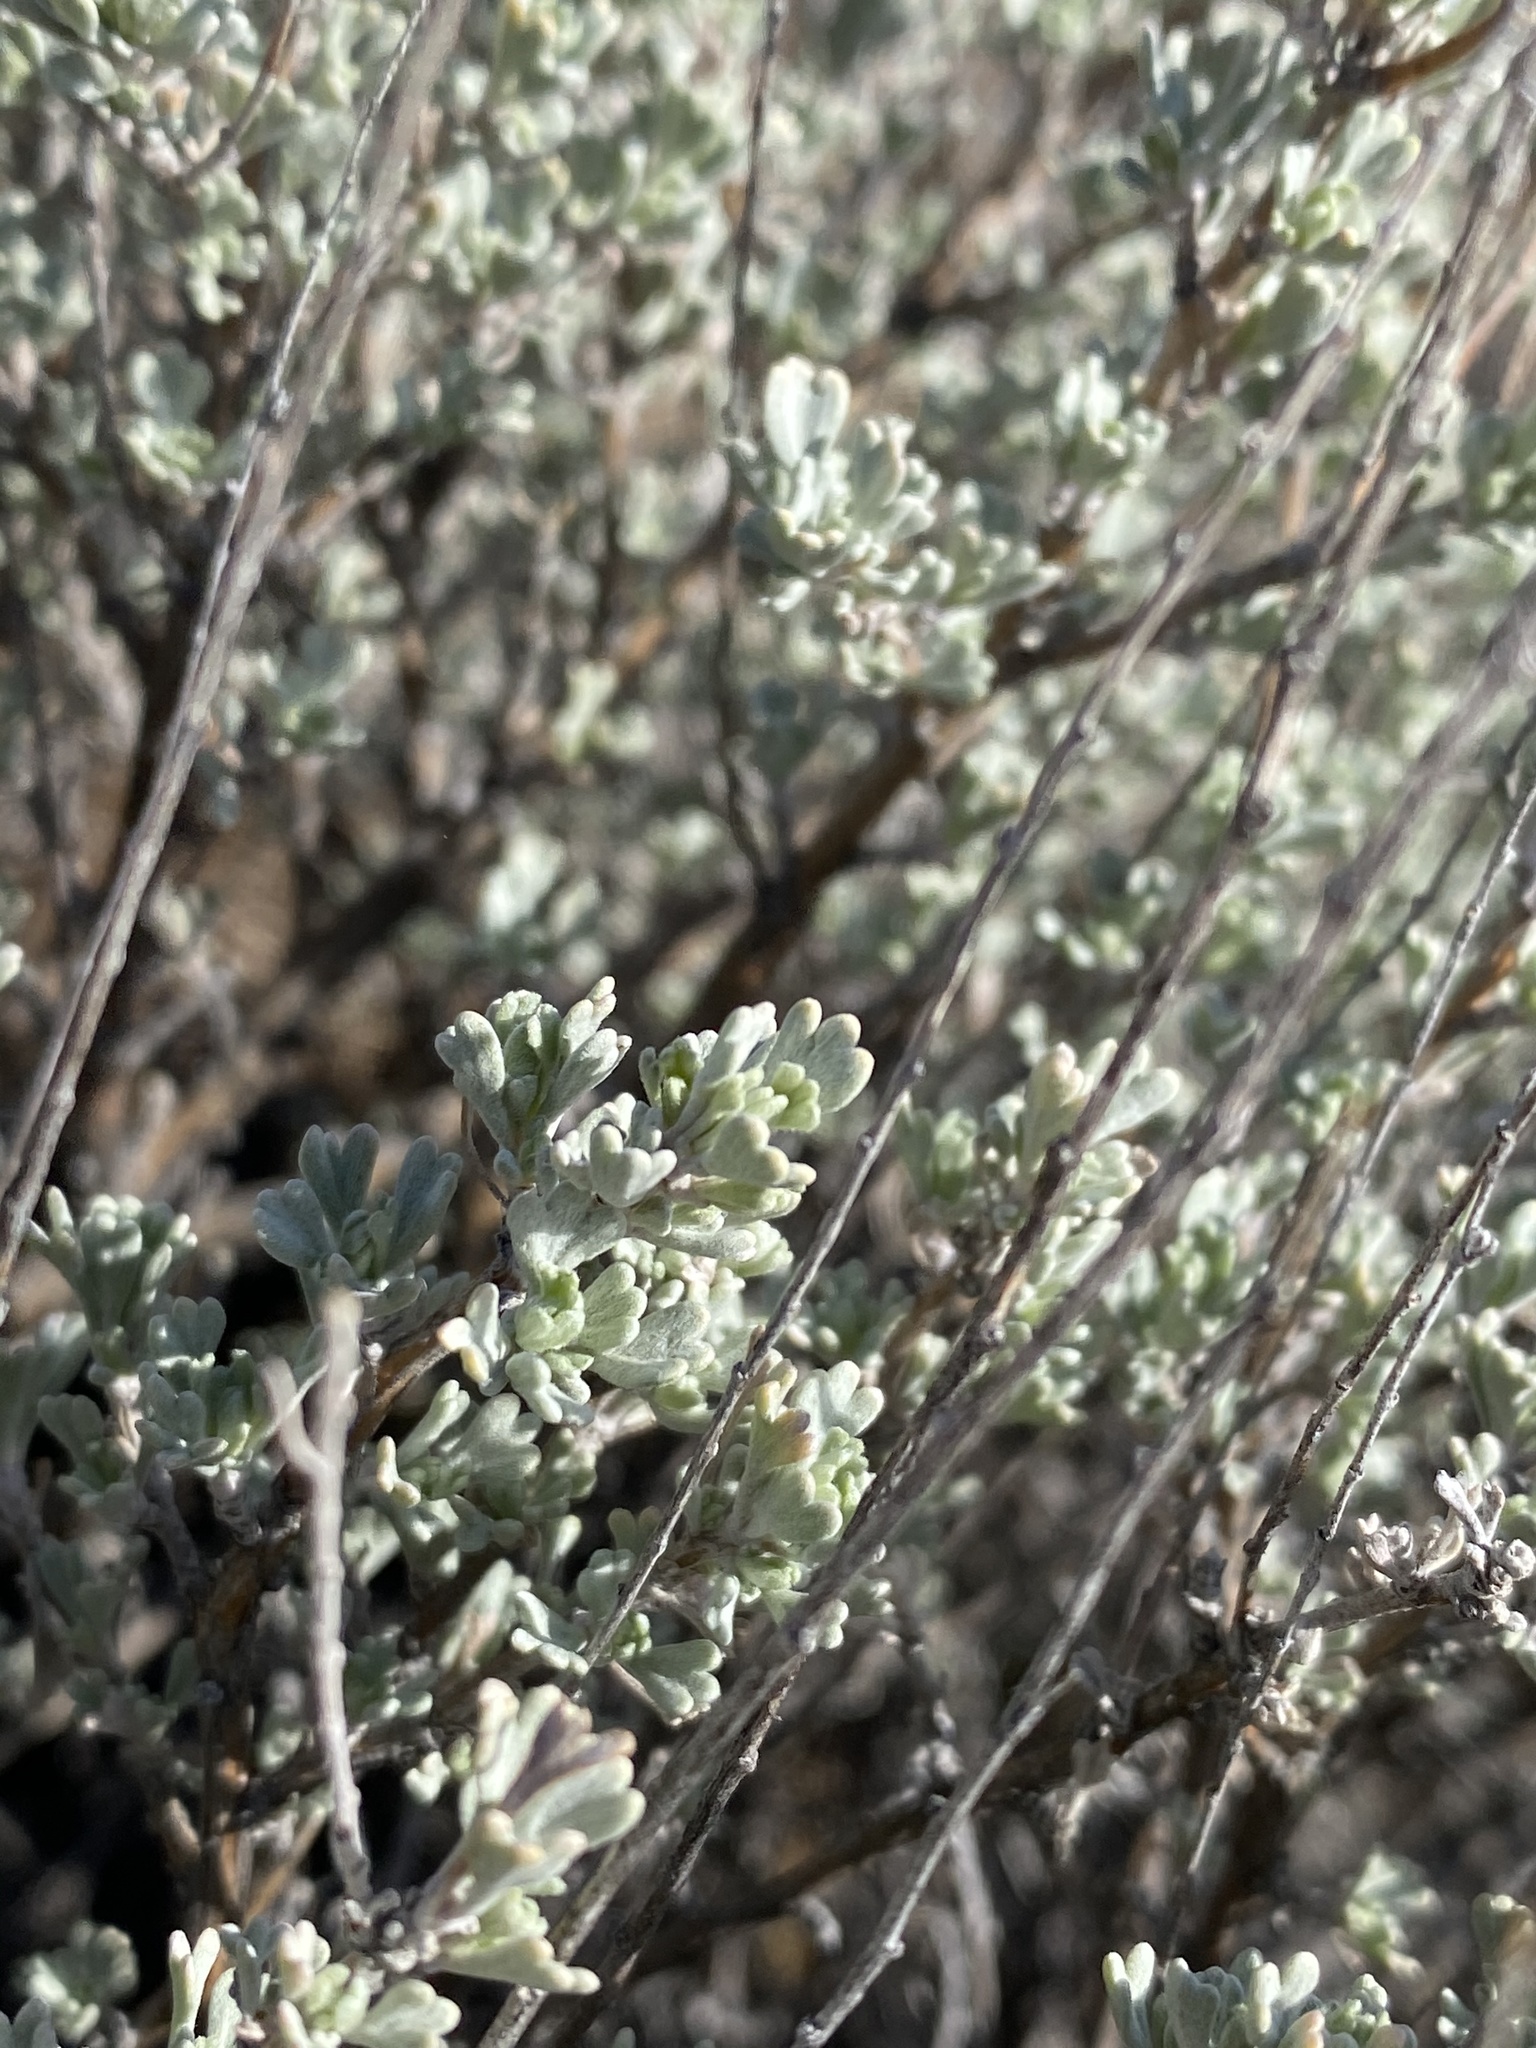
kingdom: Plantae
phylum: Tracheophyta
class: Magnoliopsida
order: Asterales
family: Asteraceae
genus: Artemisia
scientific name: Artemisia arbuscula
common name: Sagebrush
